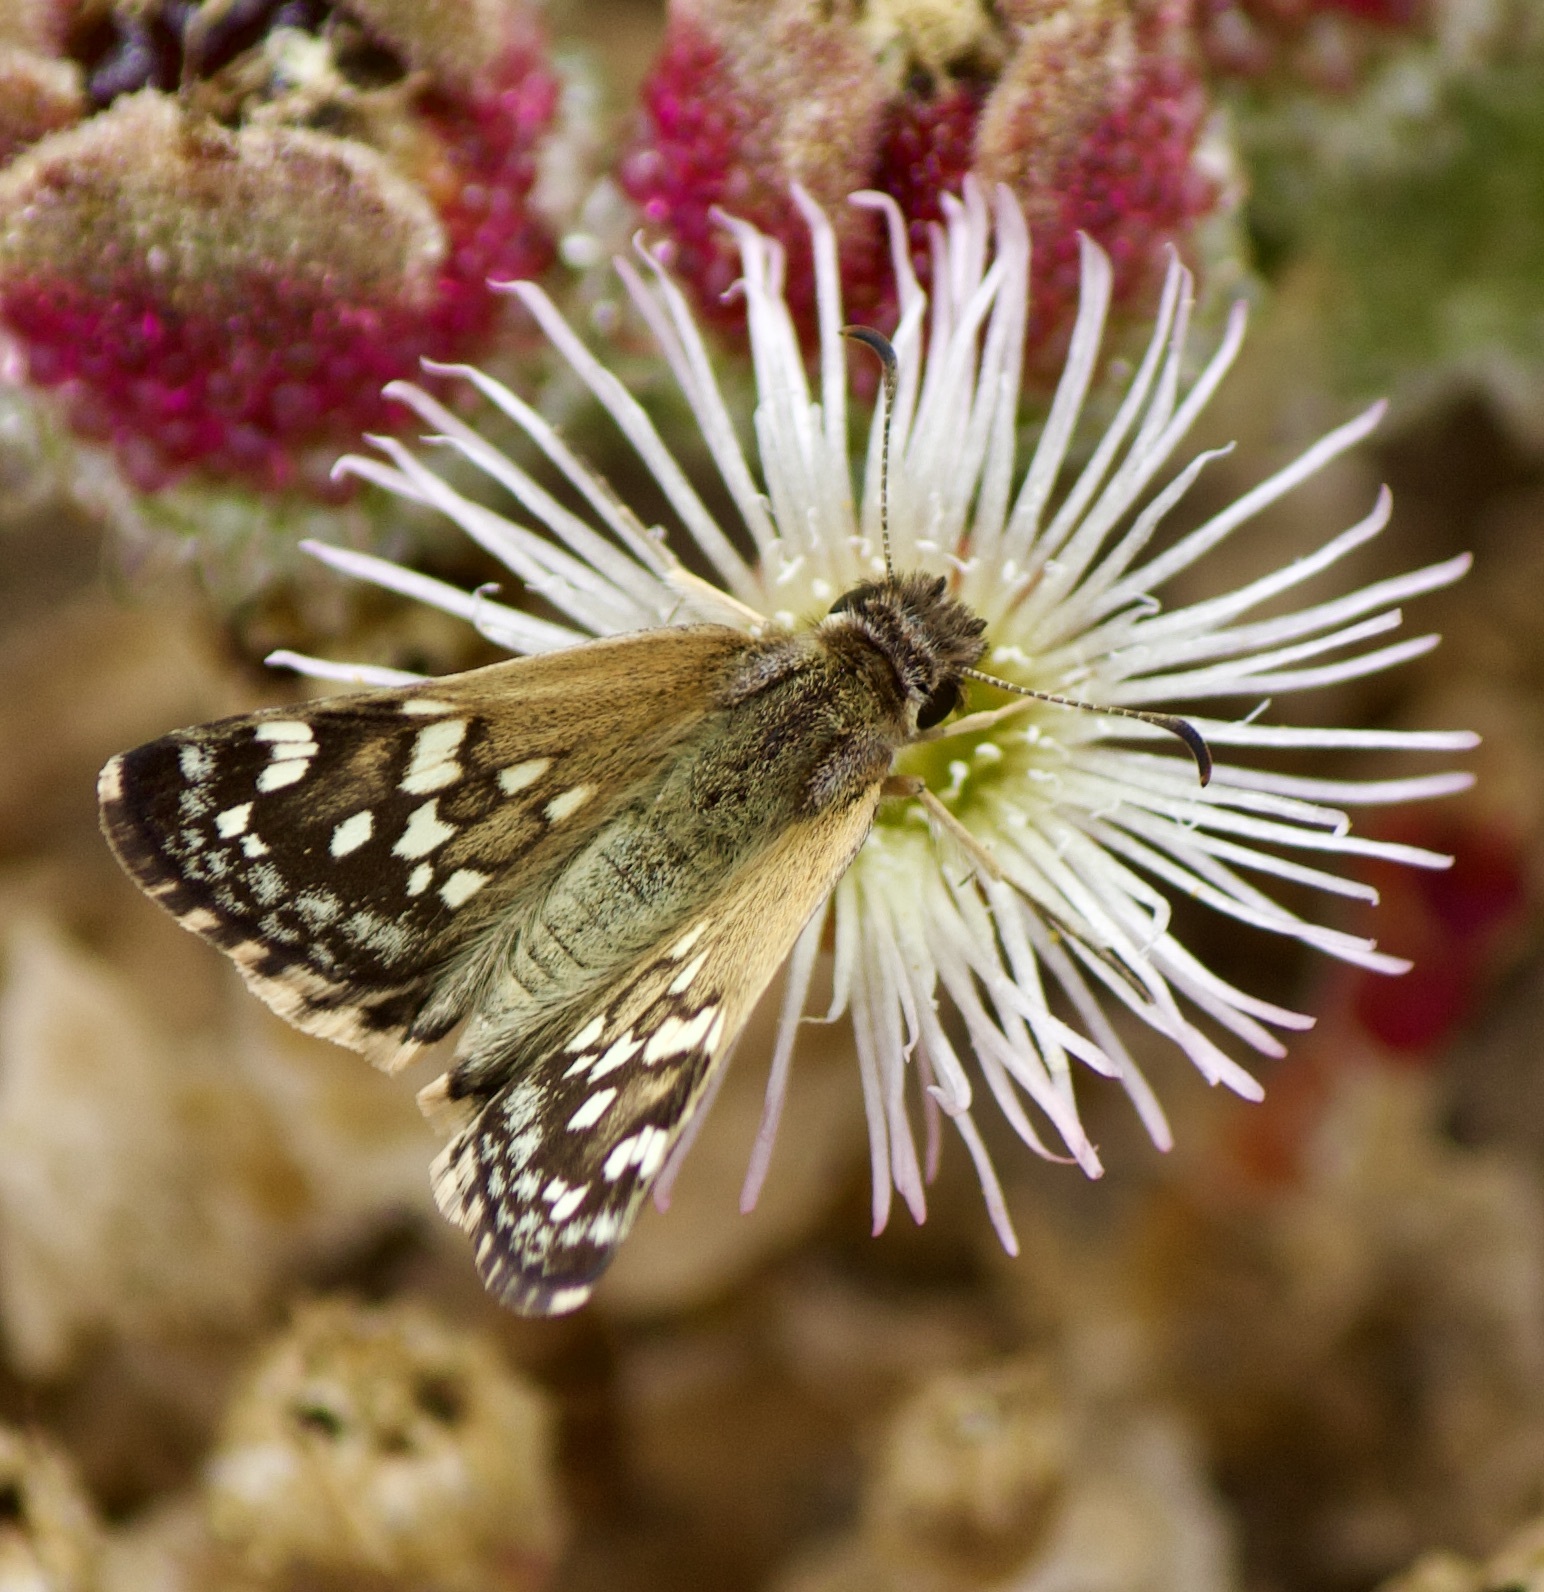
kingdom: Animalia
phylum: Arthropoda
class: Insecta
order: Lepidoptera
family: Hesperiidae
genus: Chirgus
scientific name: Chirgus fides
